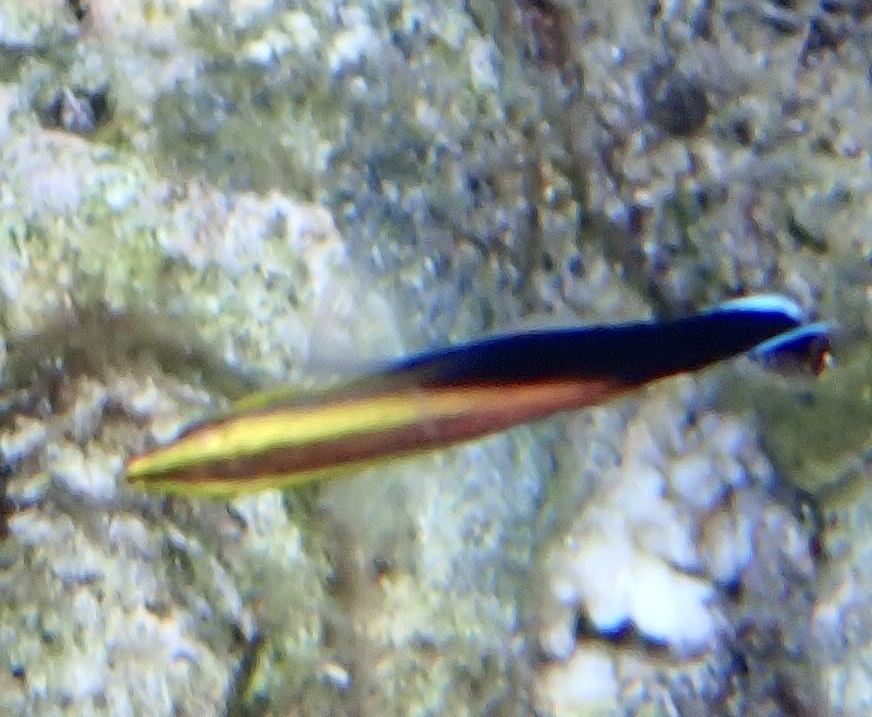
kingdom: Animalia
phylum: Chordata
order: Perciformes
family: Labridae
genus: Labroides
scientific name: Labroides pectoralis
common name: Black-spot cleaner wrasse
